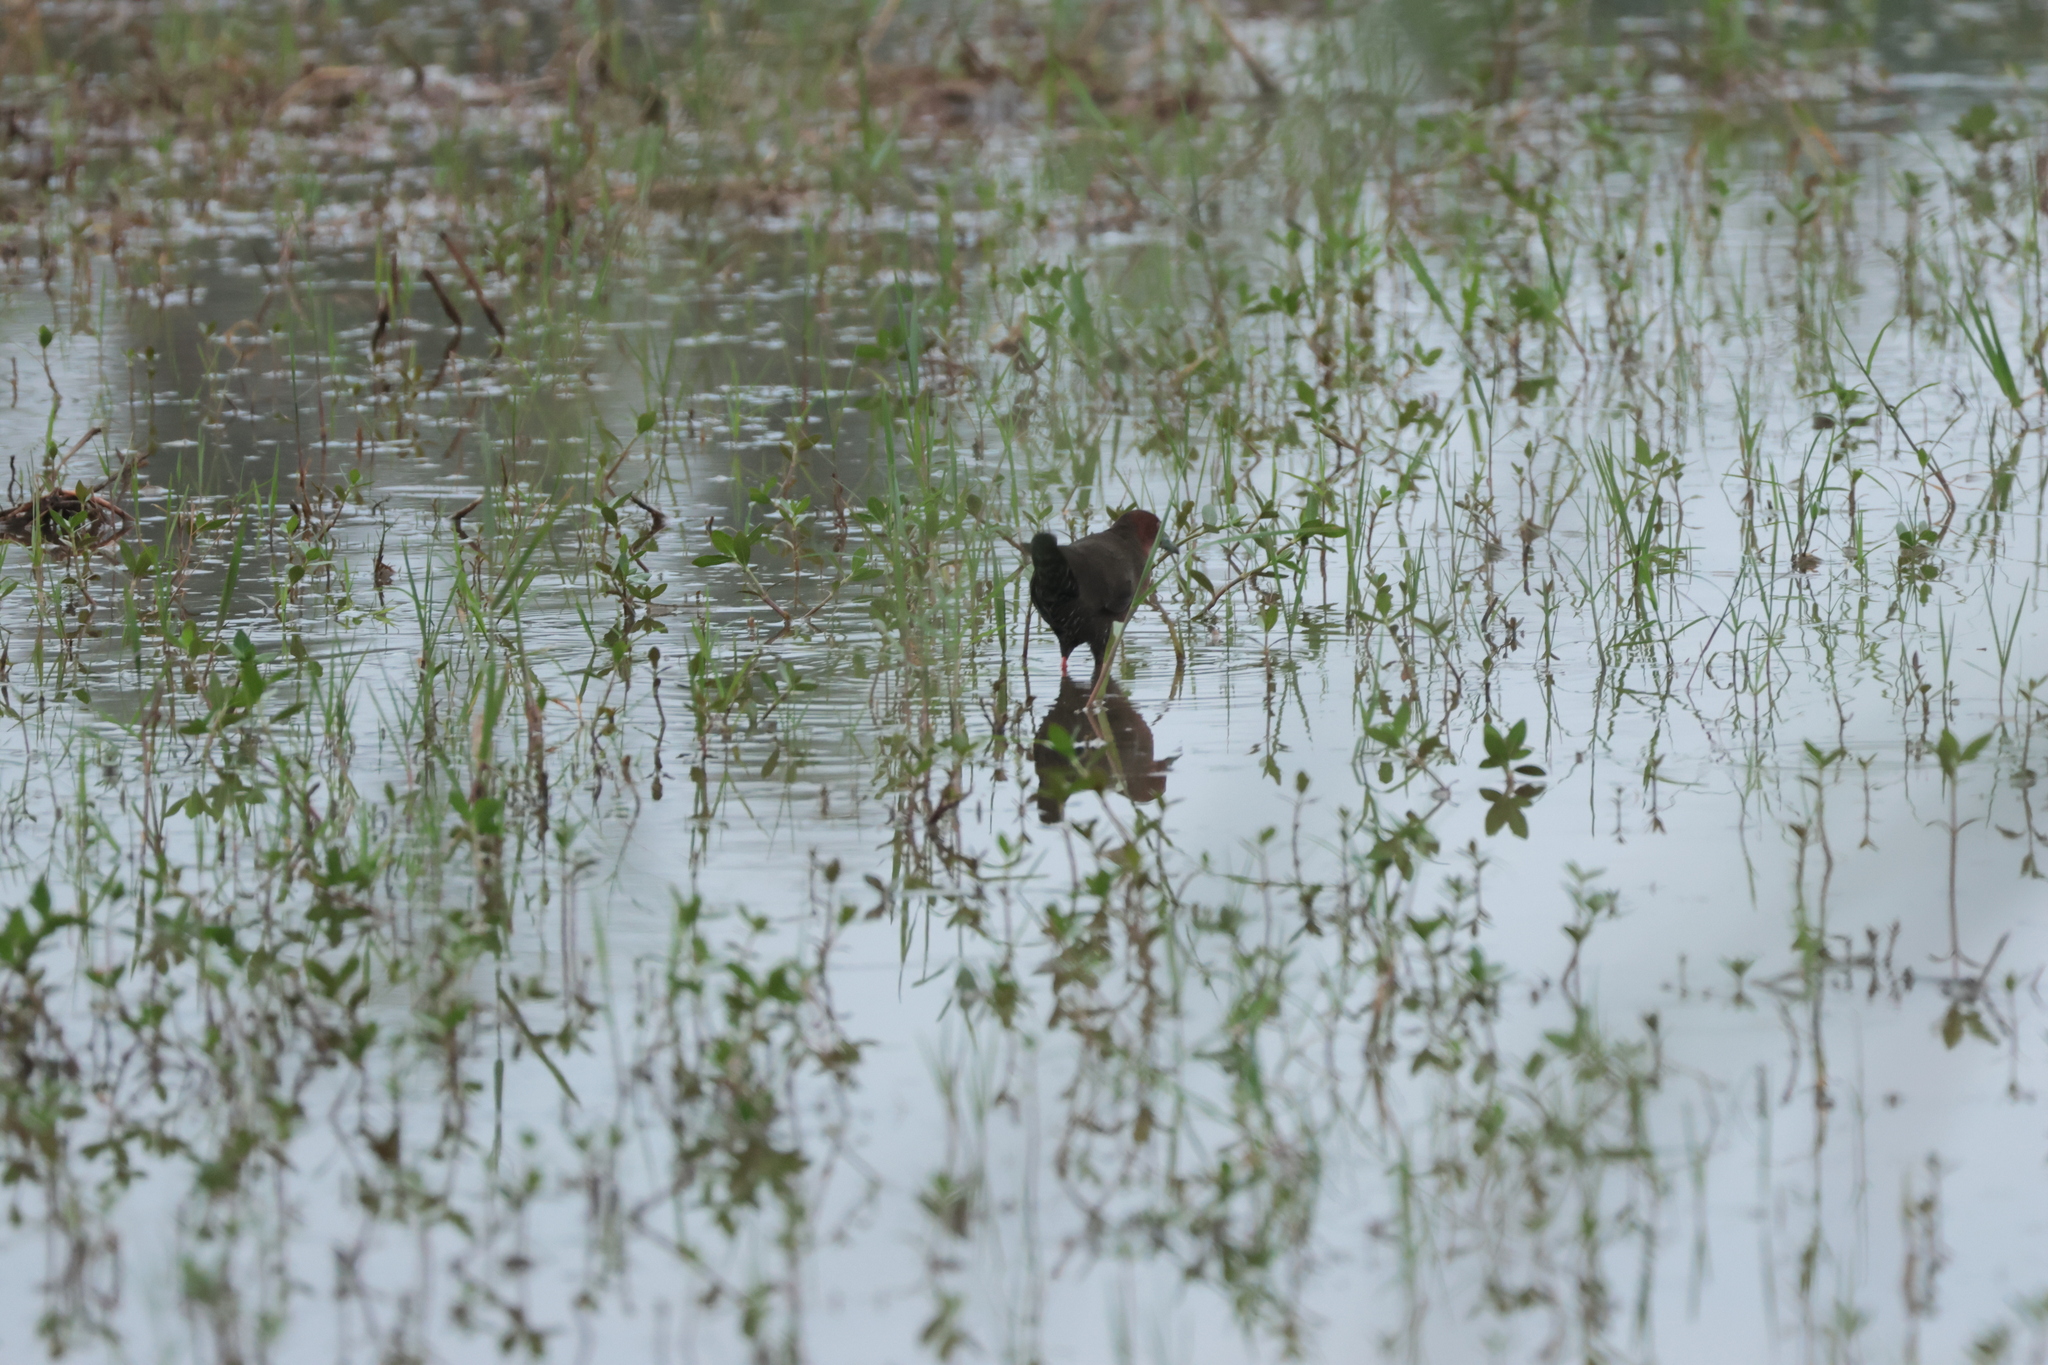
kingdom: Animalia
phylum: Chordata
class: Aves
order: Gruiformes
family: Rallidae
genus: Porzana
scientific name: Porzana fusca
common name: Ruddy-breasted crake
